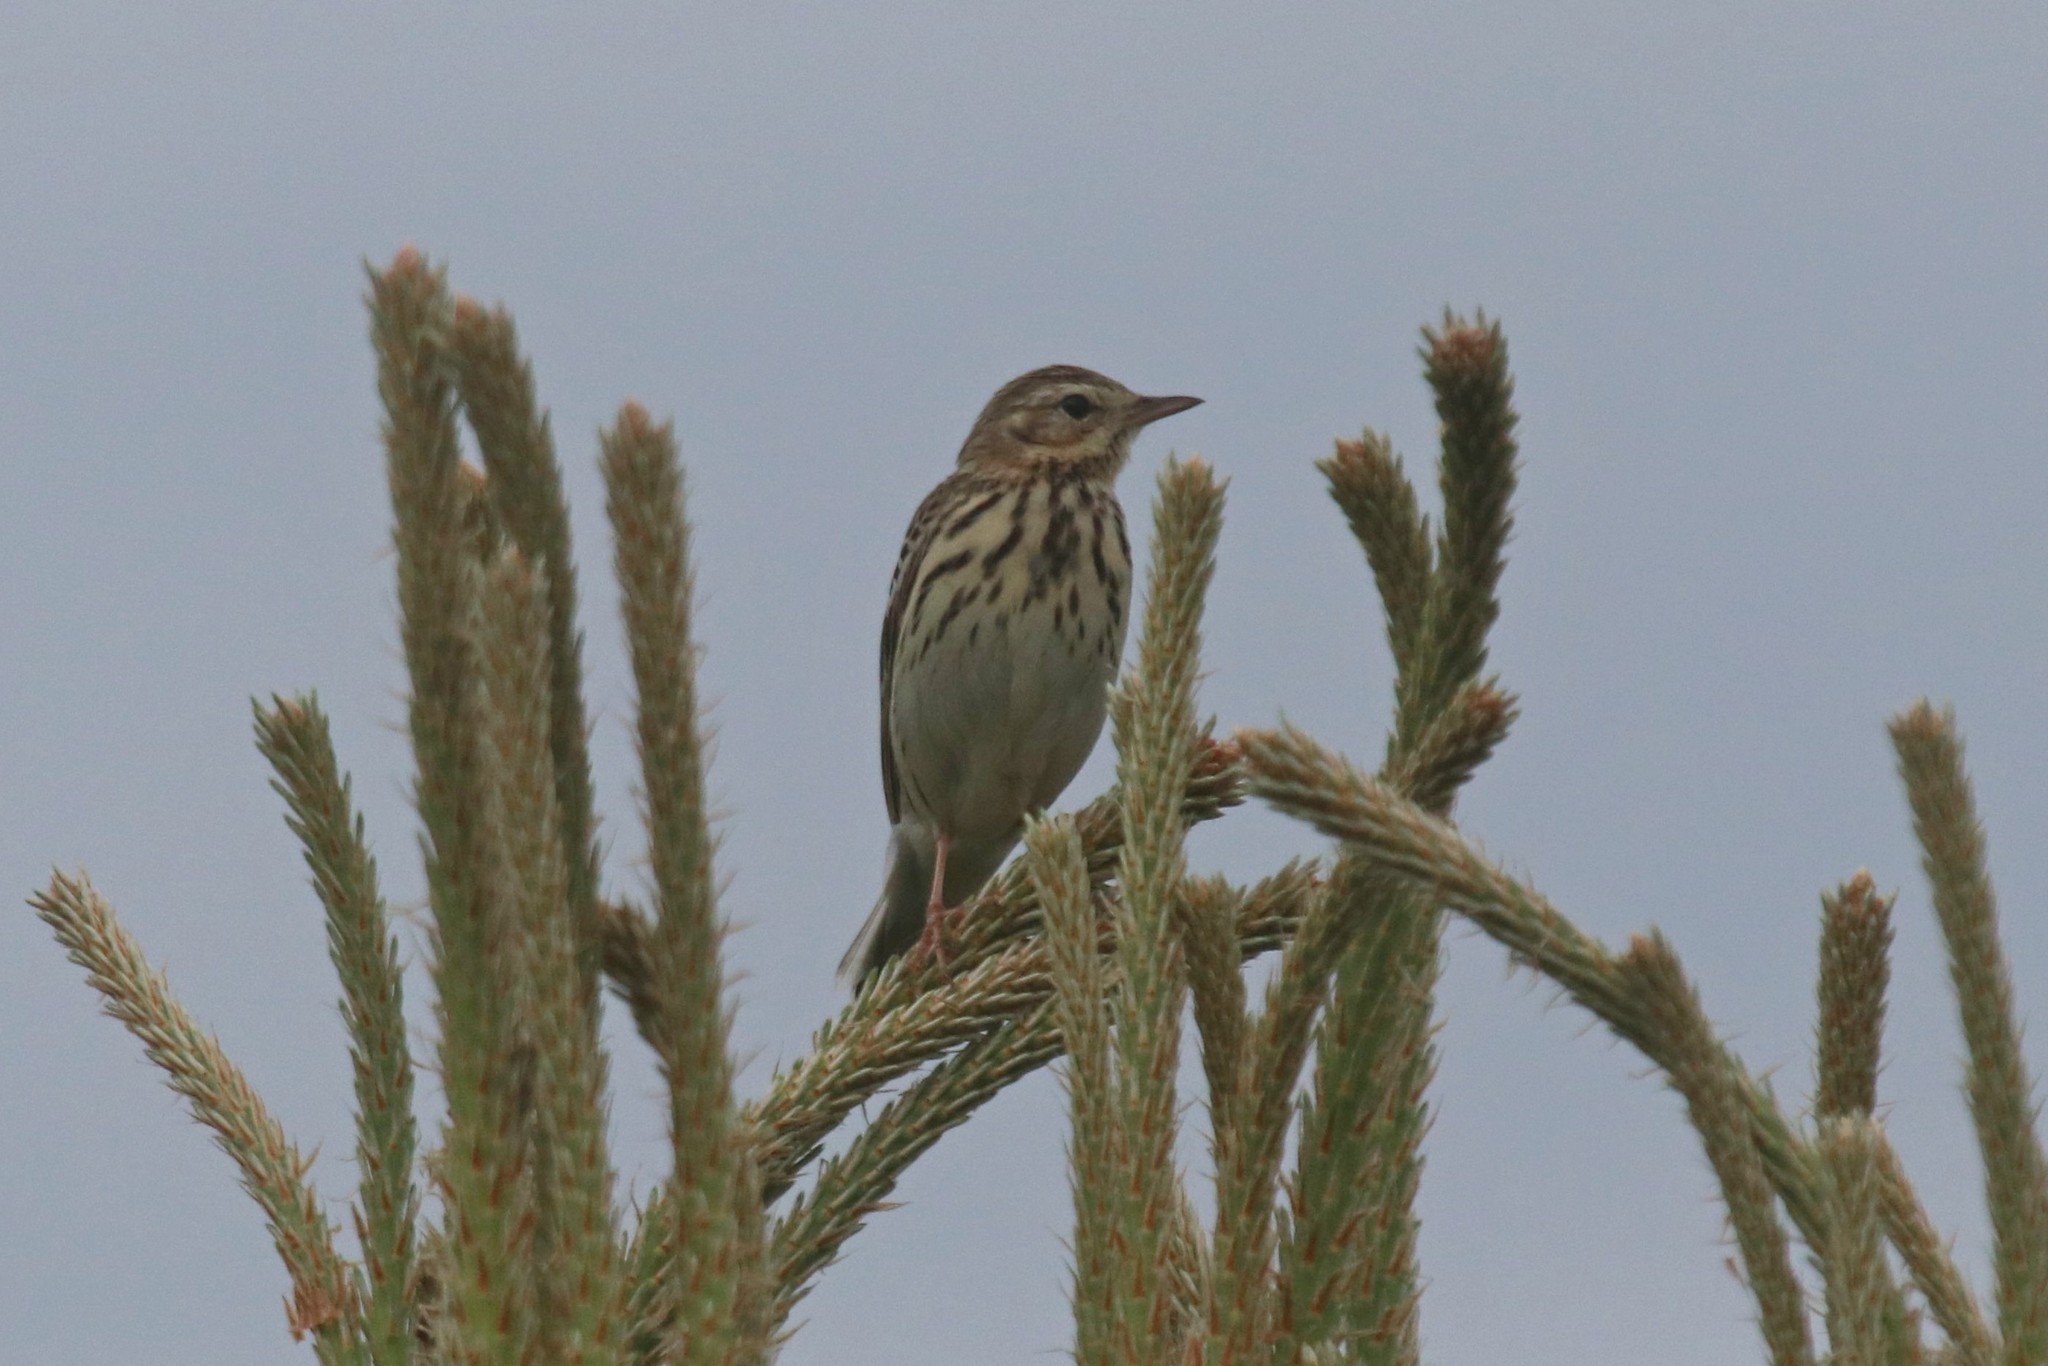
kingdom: Animalia
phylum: Chordata
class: Aves
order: Passeriformes
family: Motacillidae
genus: Anthus
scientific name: Anthus trivialis
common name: Tree pipit
